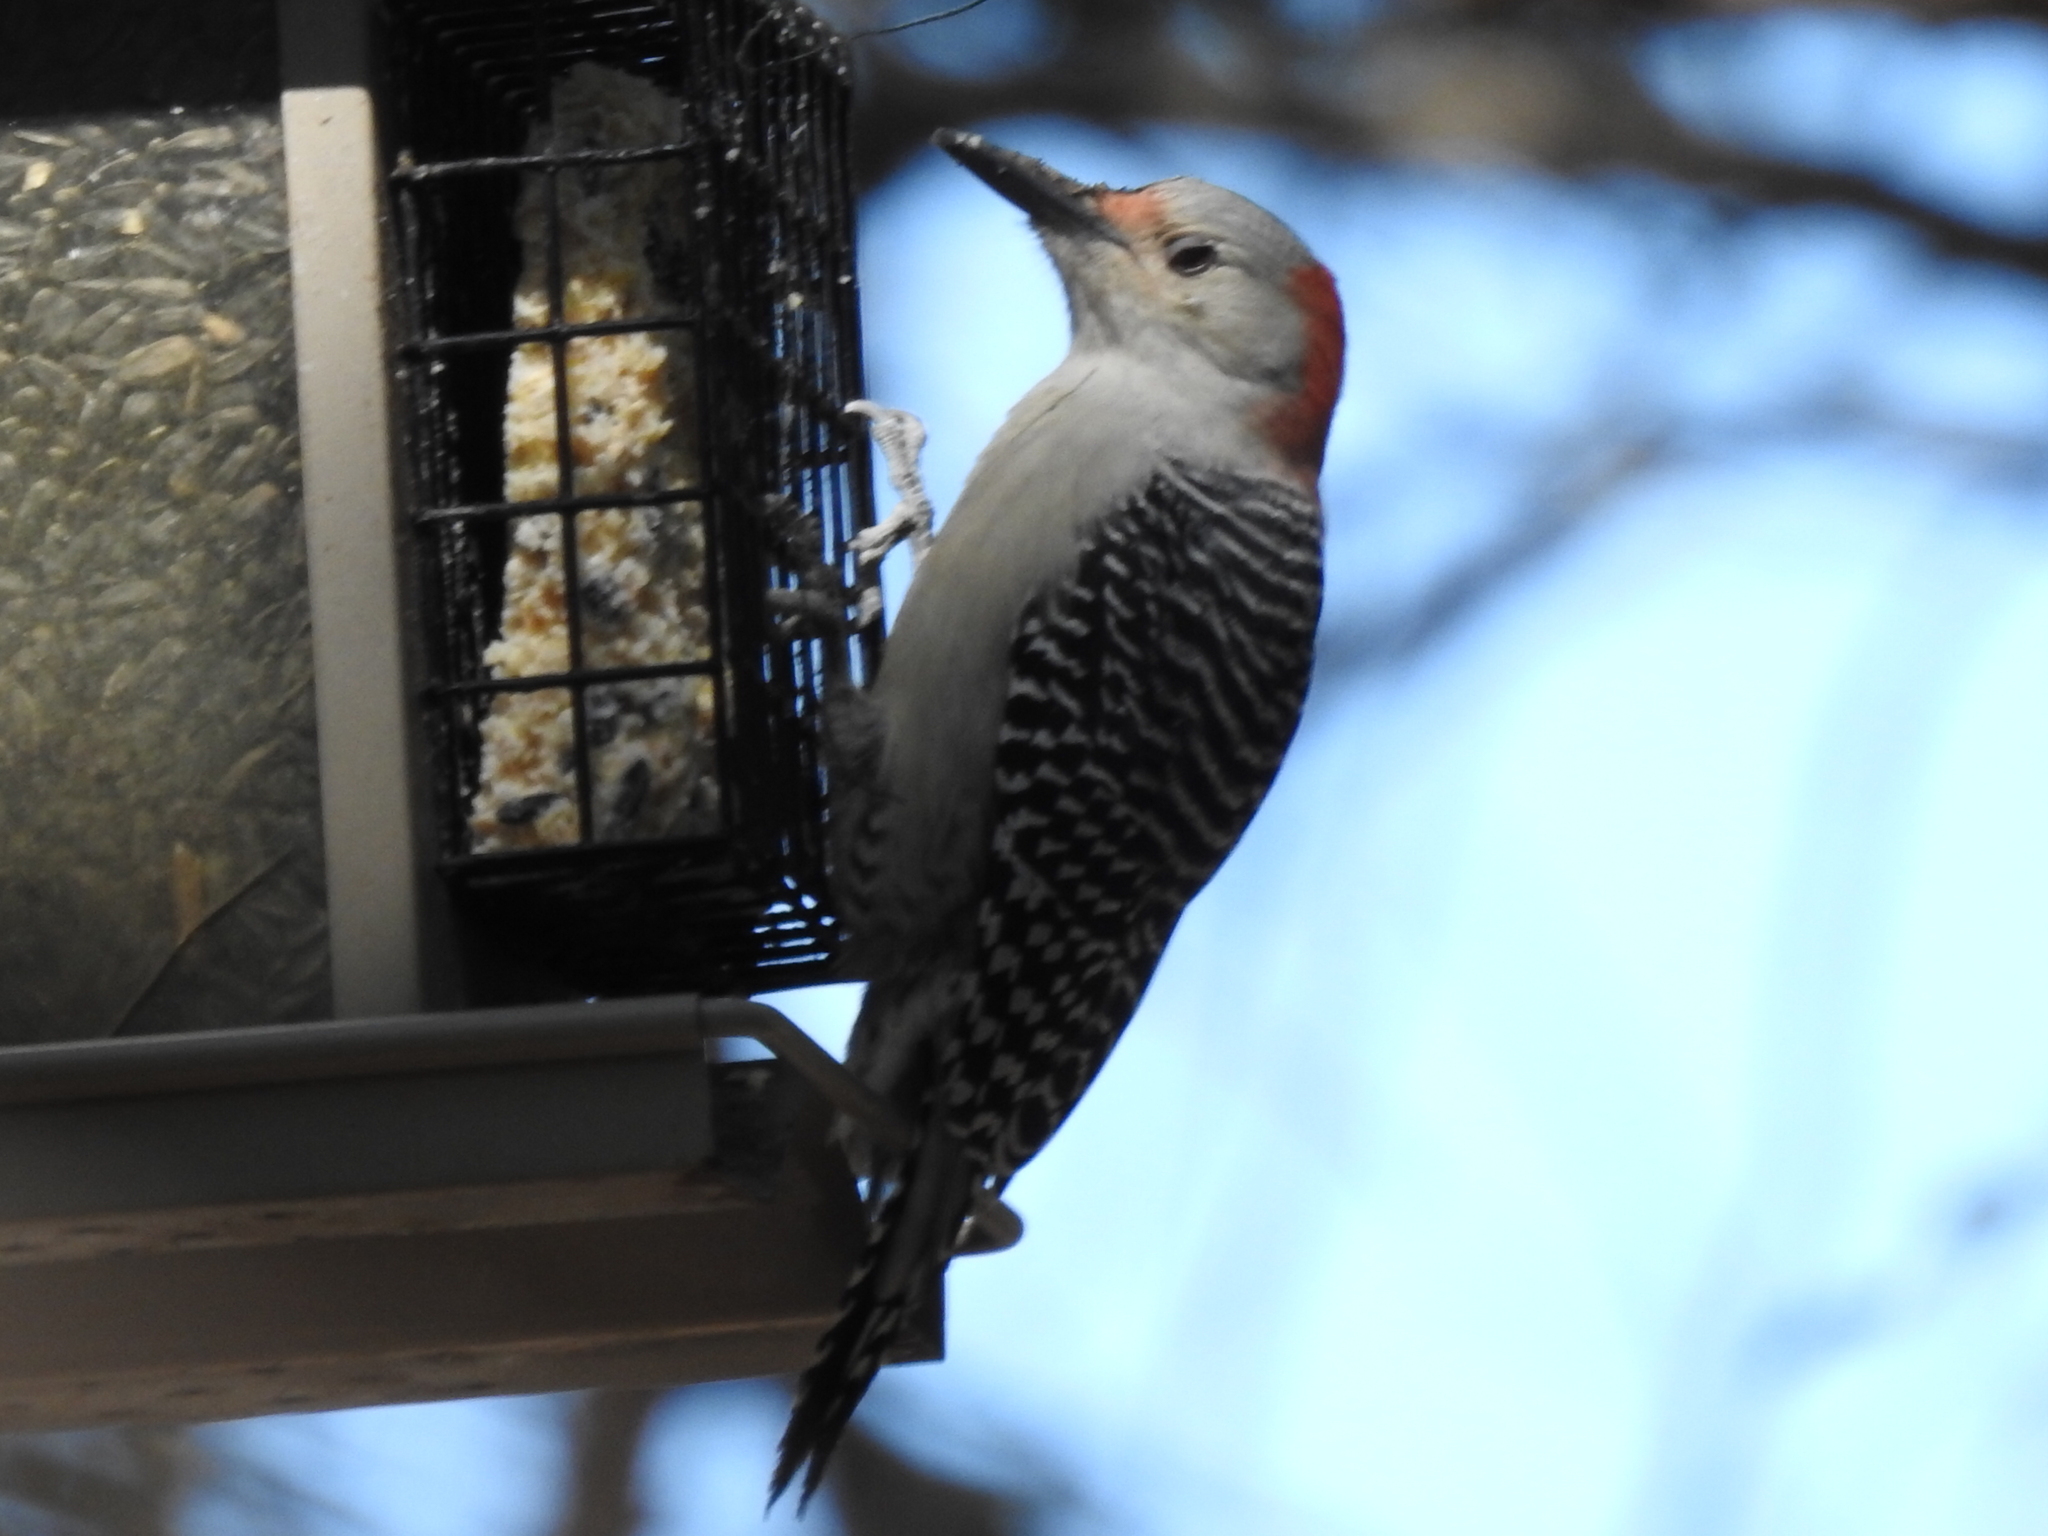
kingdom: Animalia
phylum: Chordata
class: Aves
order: Piciformes
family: Picidae
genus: Melanerpes
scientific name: Melanerpes carolinus
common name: Red-bellied woodpecker
